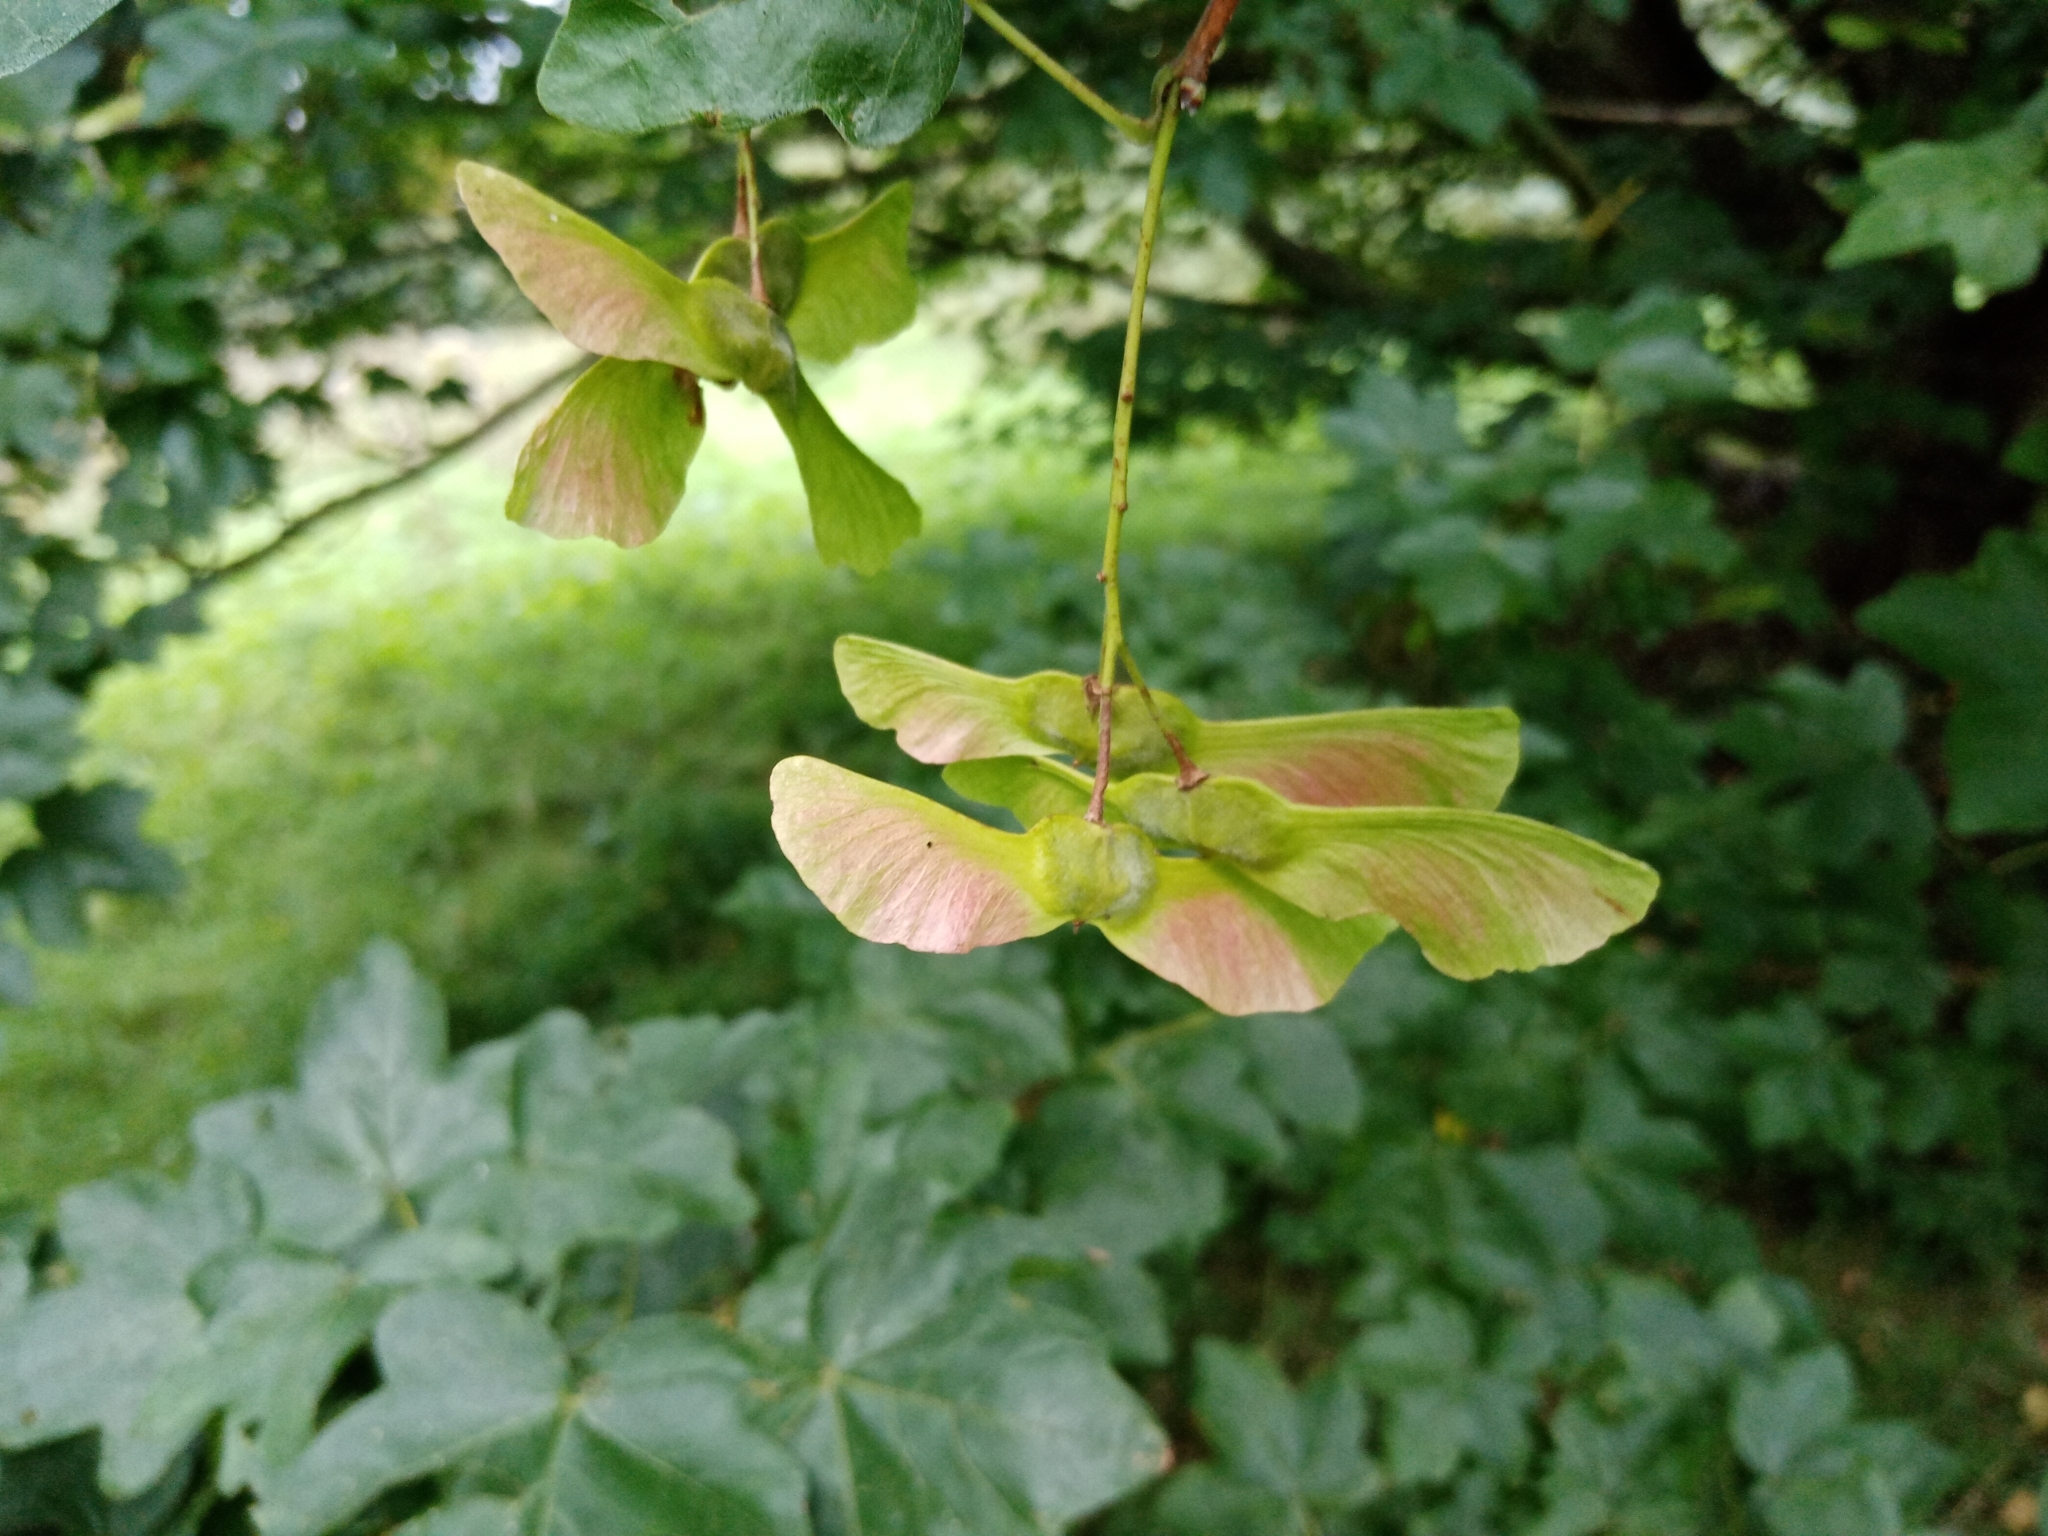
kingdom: Plantae
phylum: Tracheophyta
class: Magnoliopsida
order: Sapindales
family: Sapindaceae
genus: Acer
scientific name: Acer campestre
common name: Field maple
